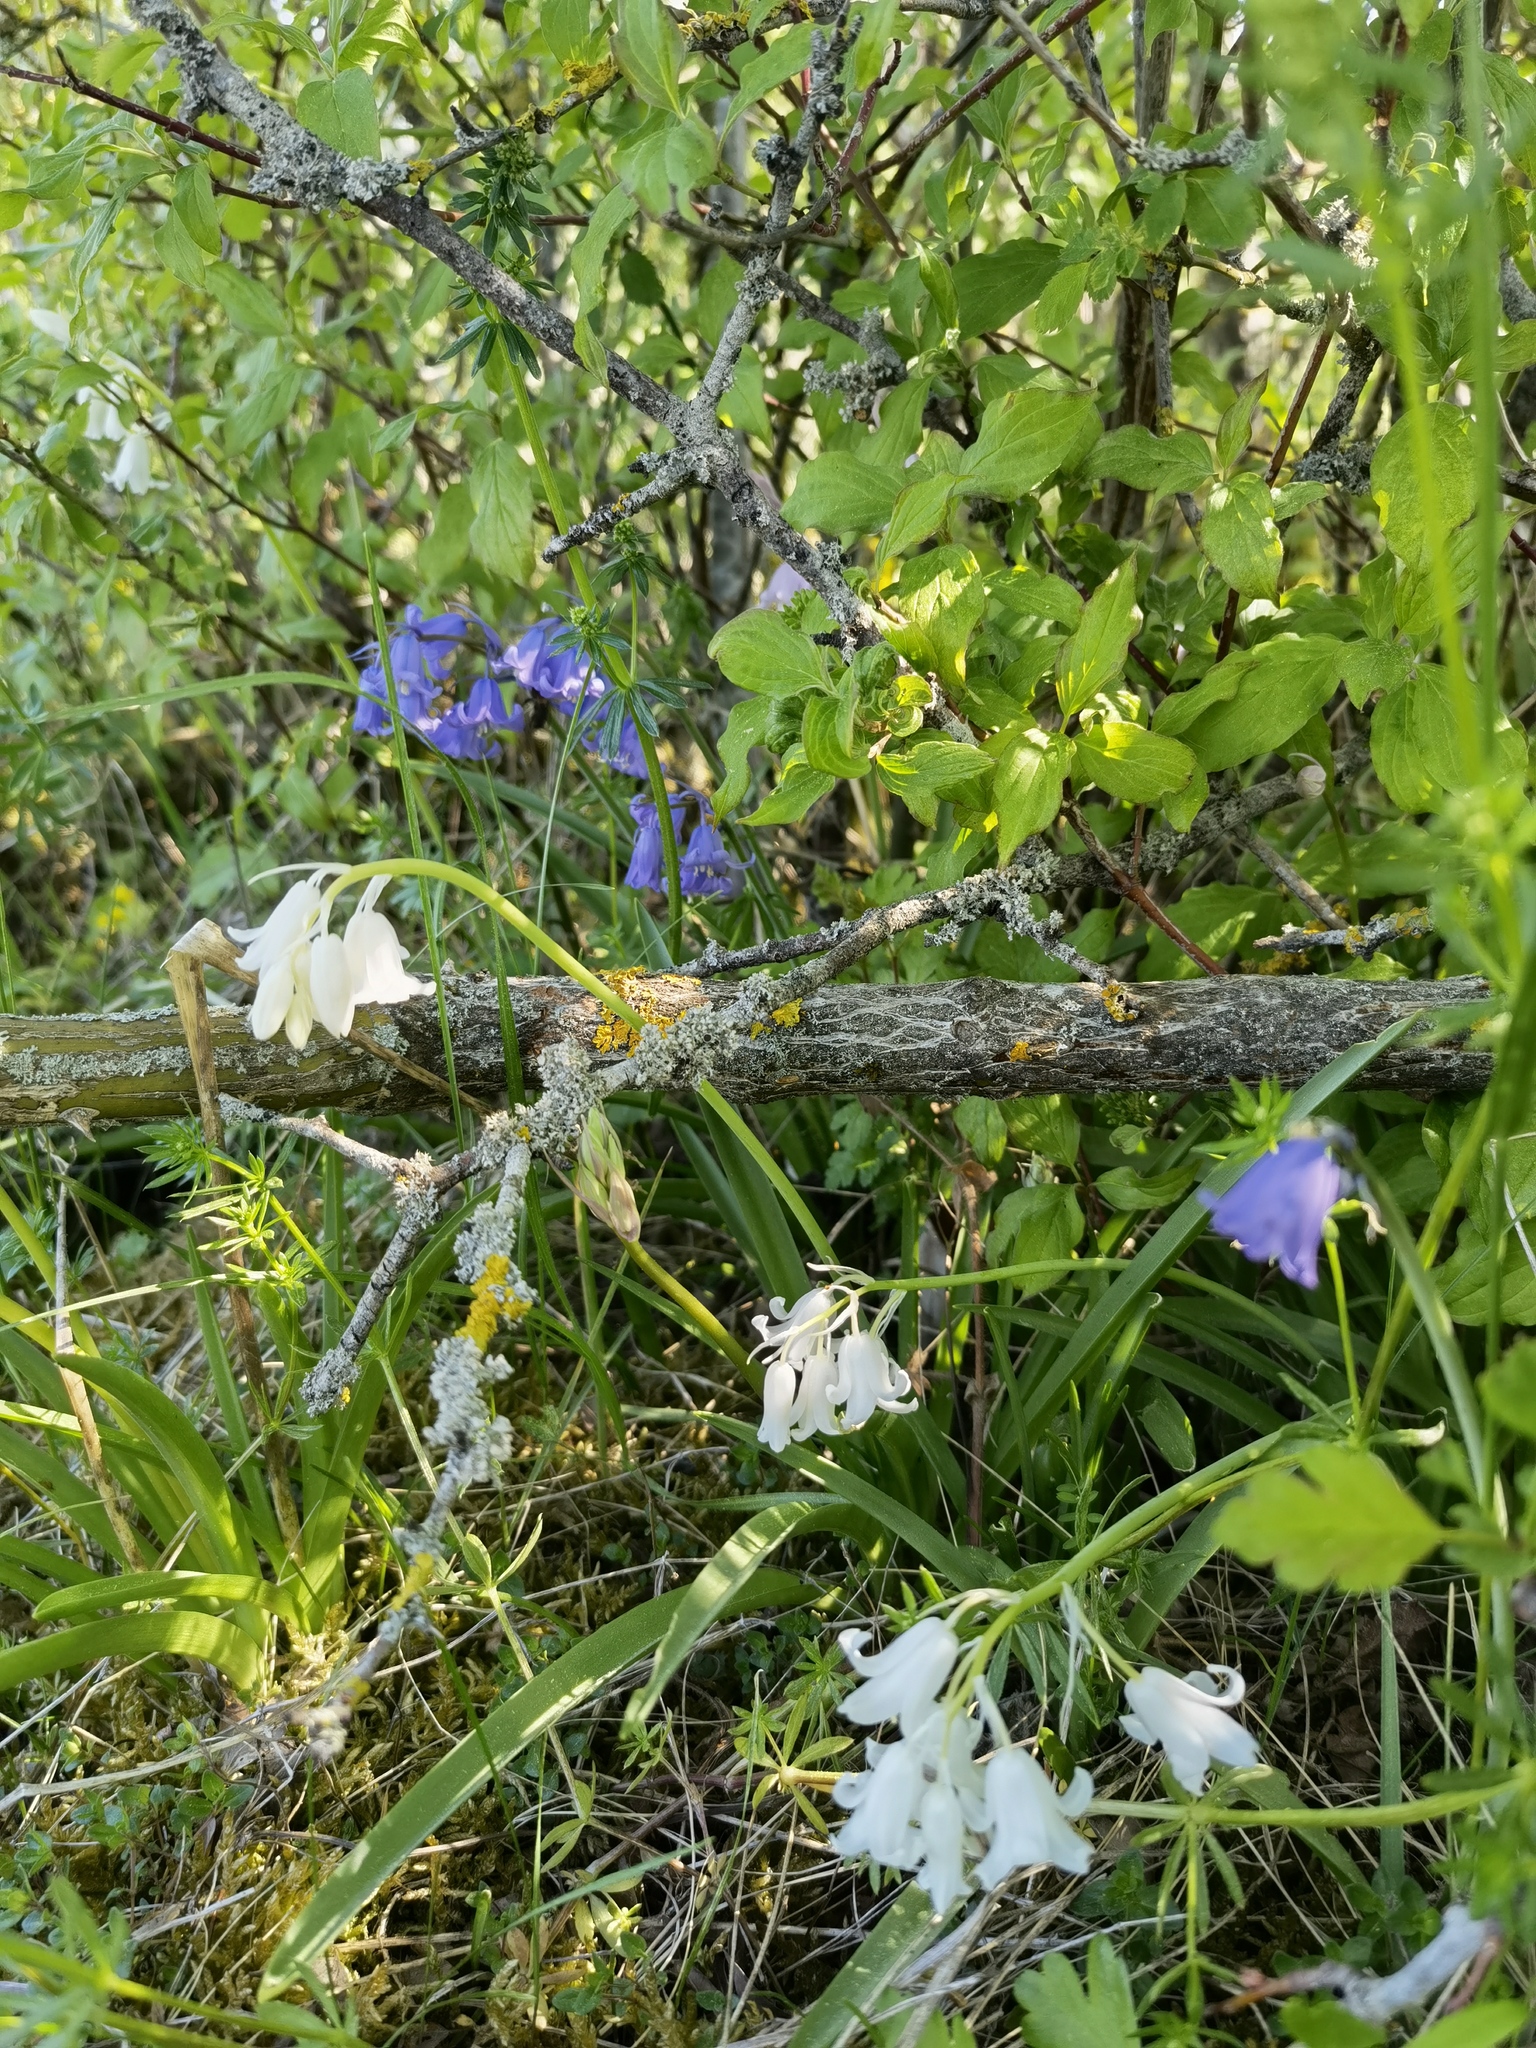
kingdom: Plantae
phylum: Tracheophyta
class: Liliopsida
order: Asparagales
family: Asparagaceae
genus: Hyacinthoides
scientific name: Hyacinthoides hispanica
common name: Spanish bluebell
